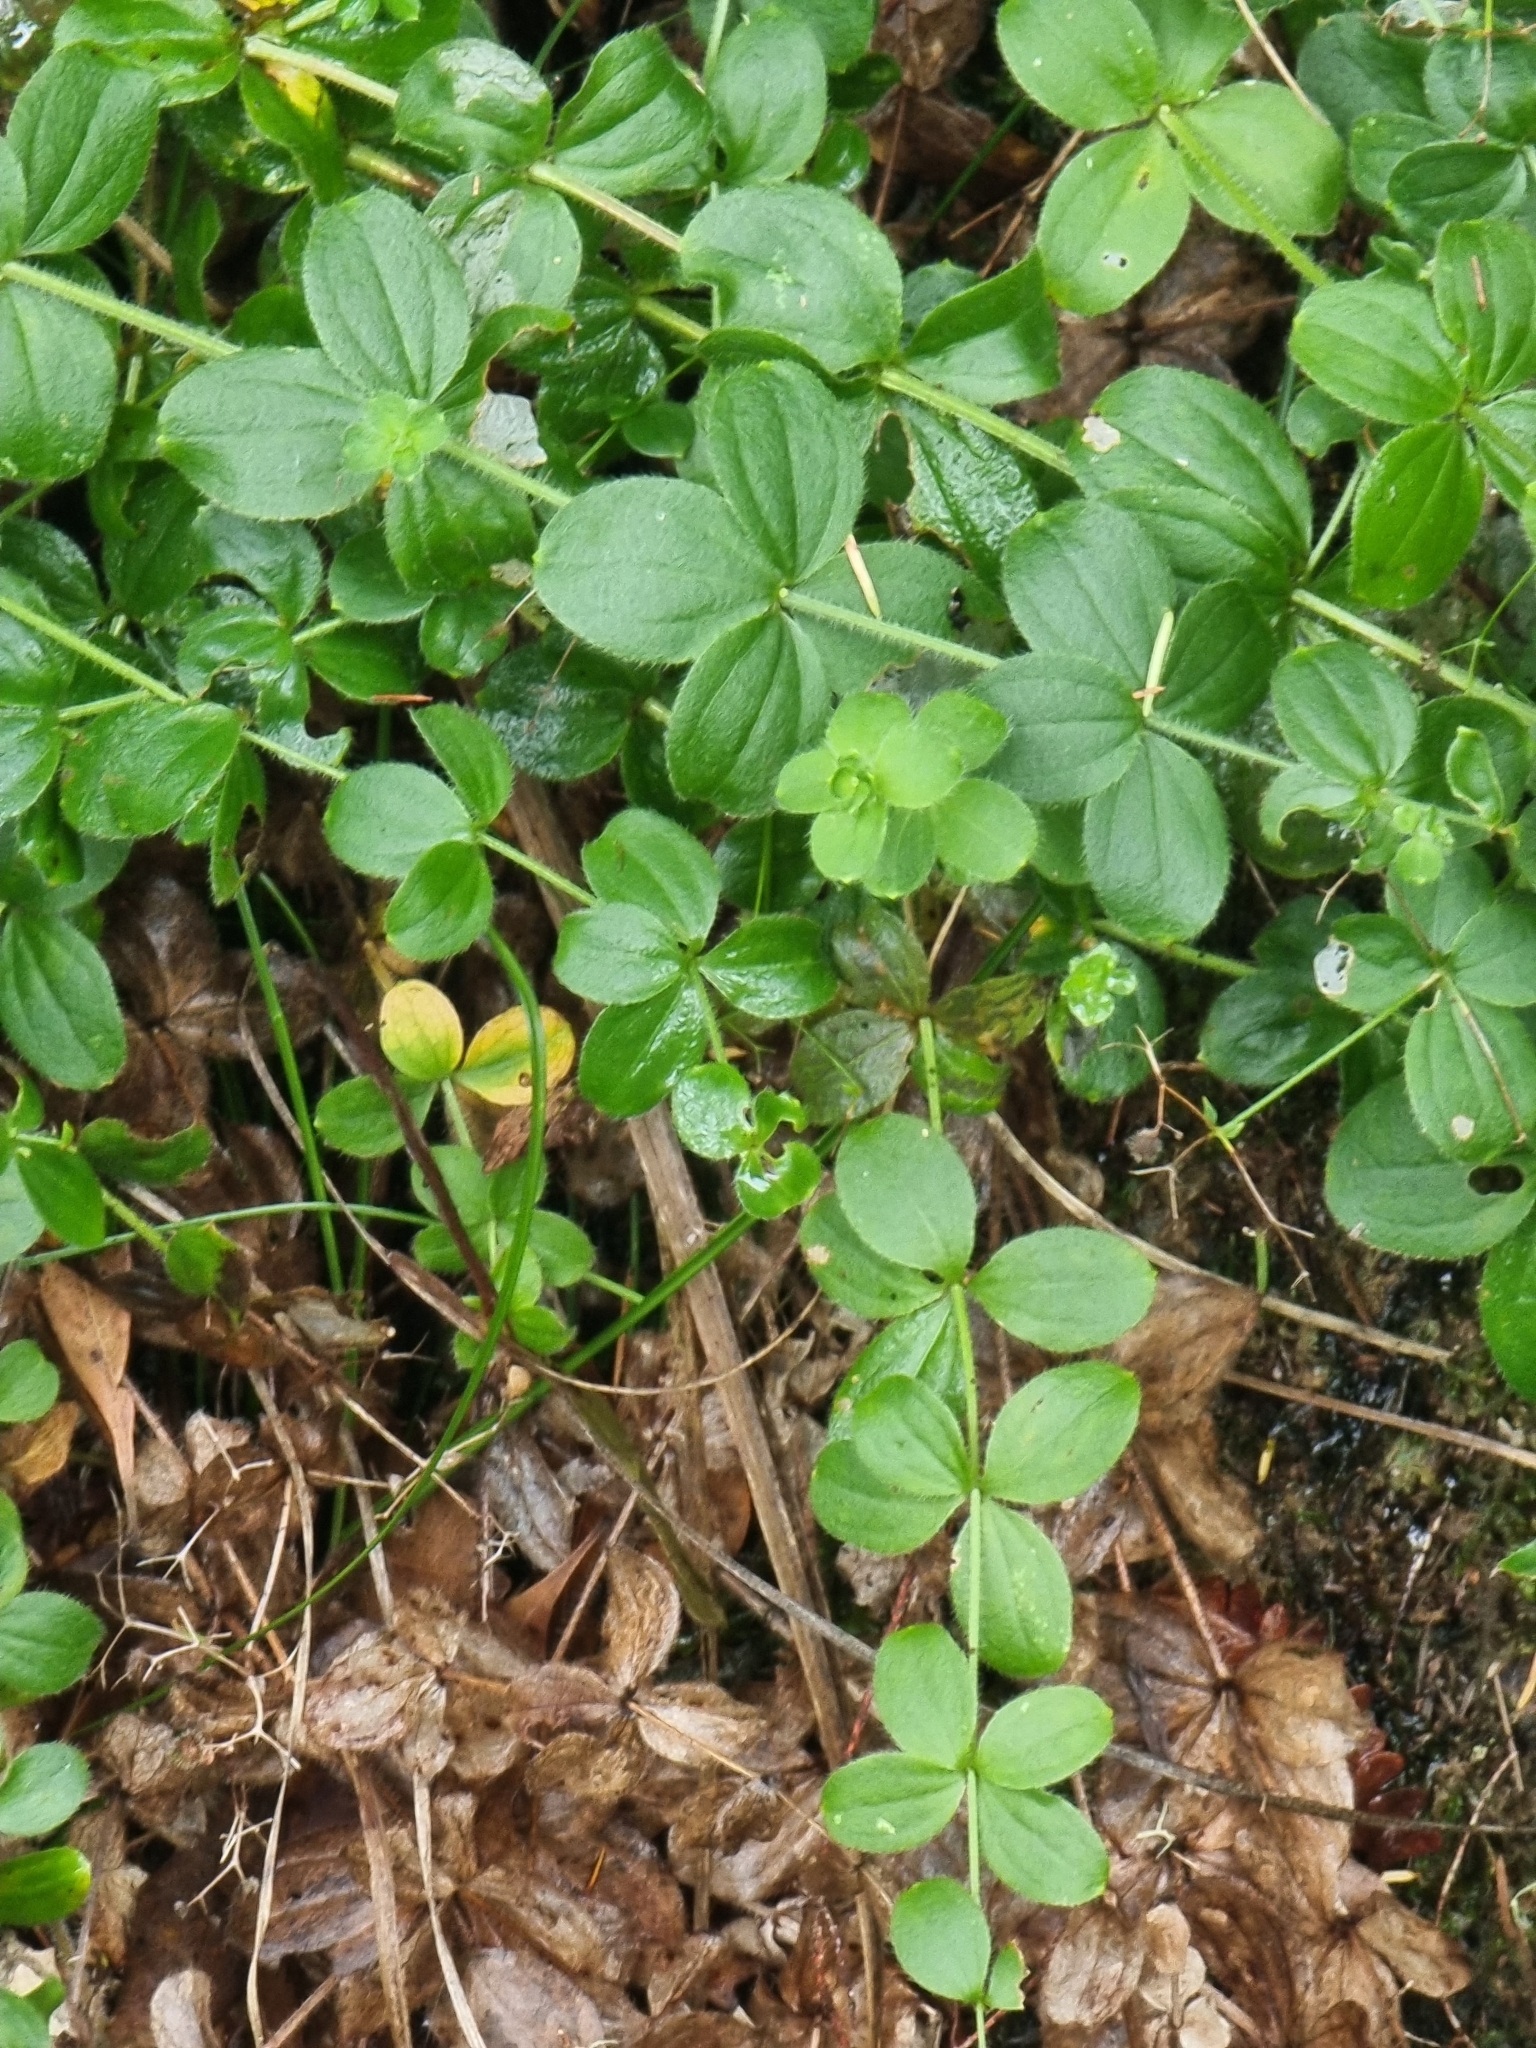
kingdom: Plantae
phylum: Tracheophyta
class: Magnoliopsida
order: Gentianales
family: Rubiaceae
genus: Galium
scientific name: Galium scabrum
